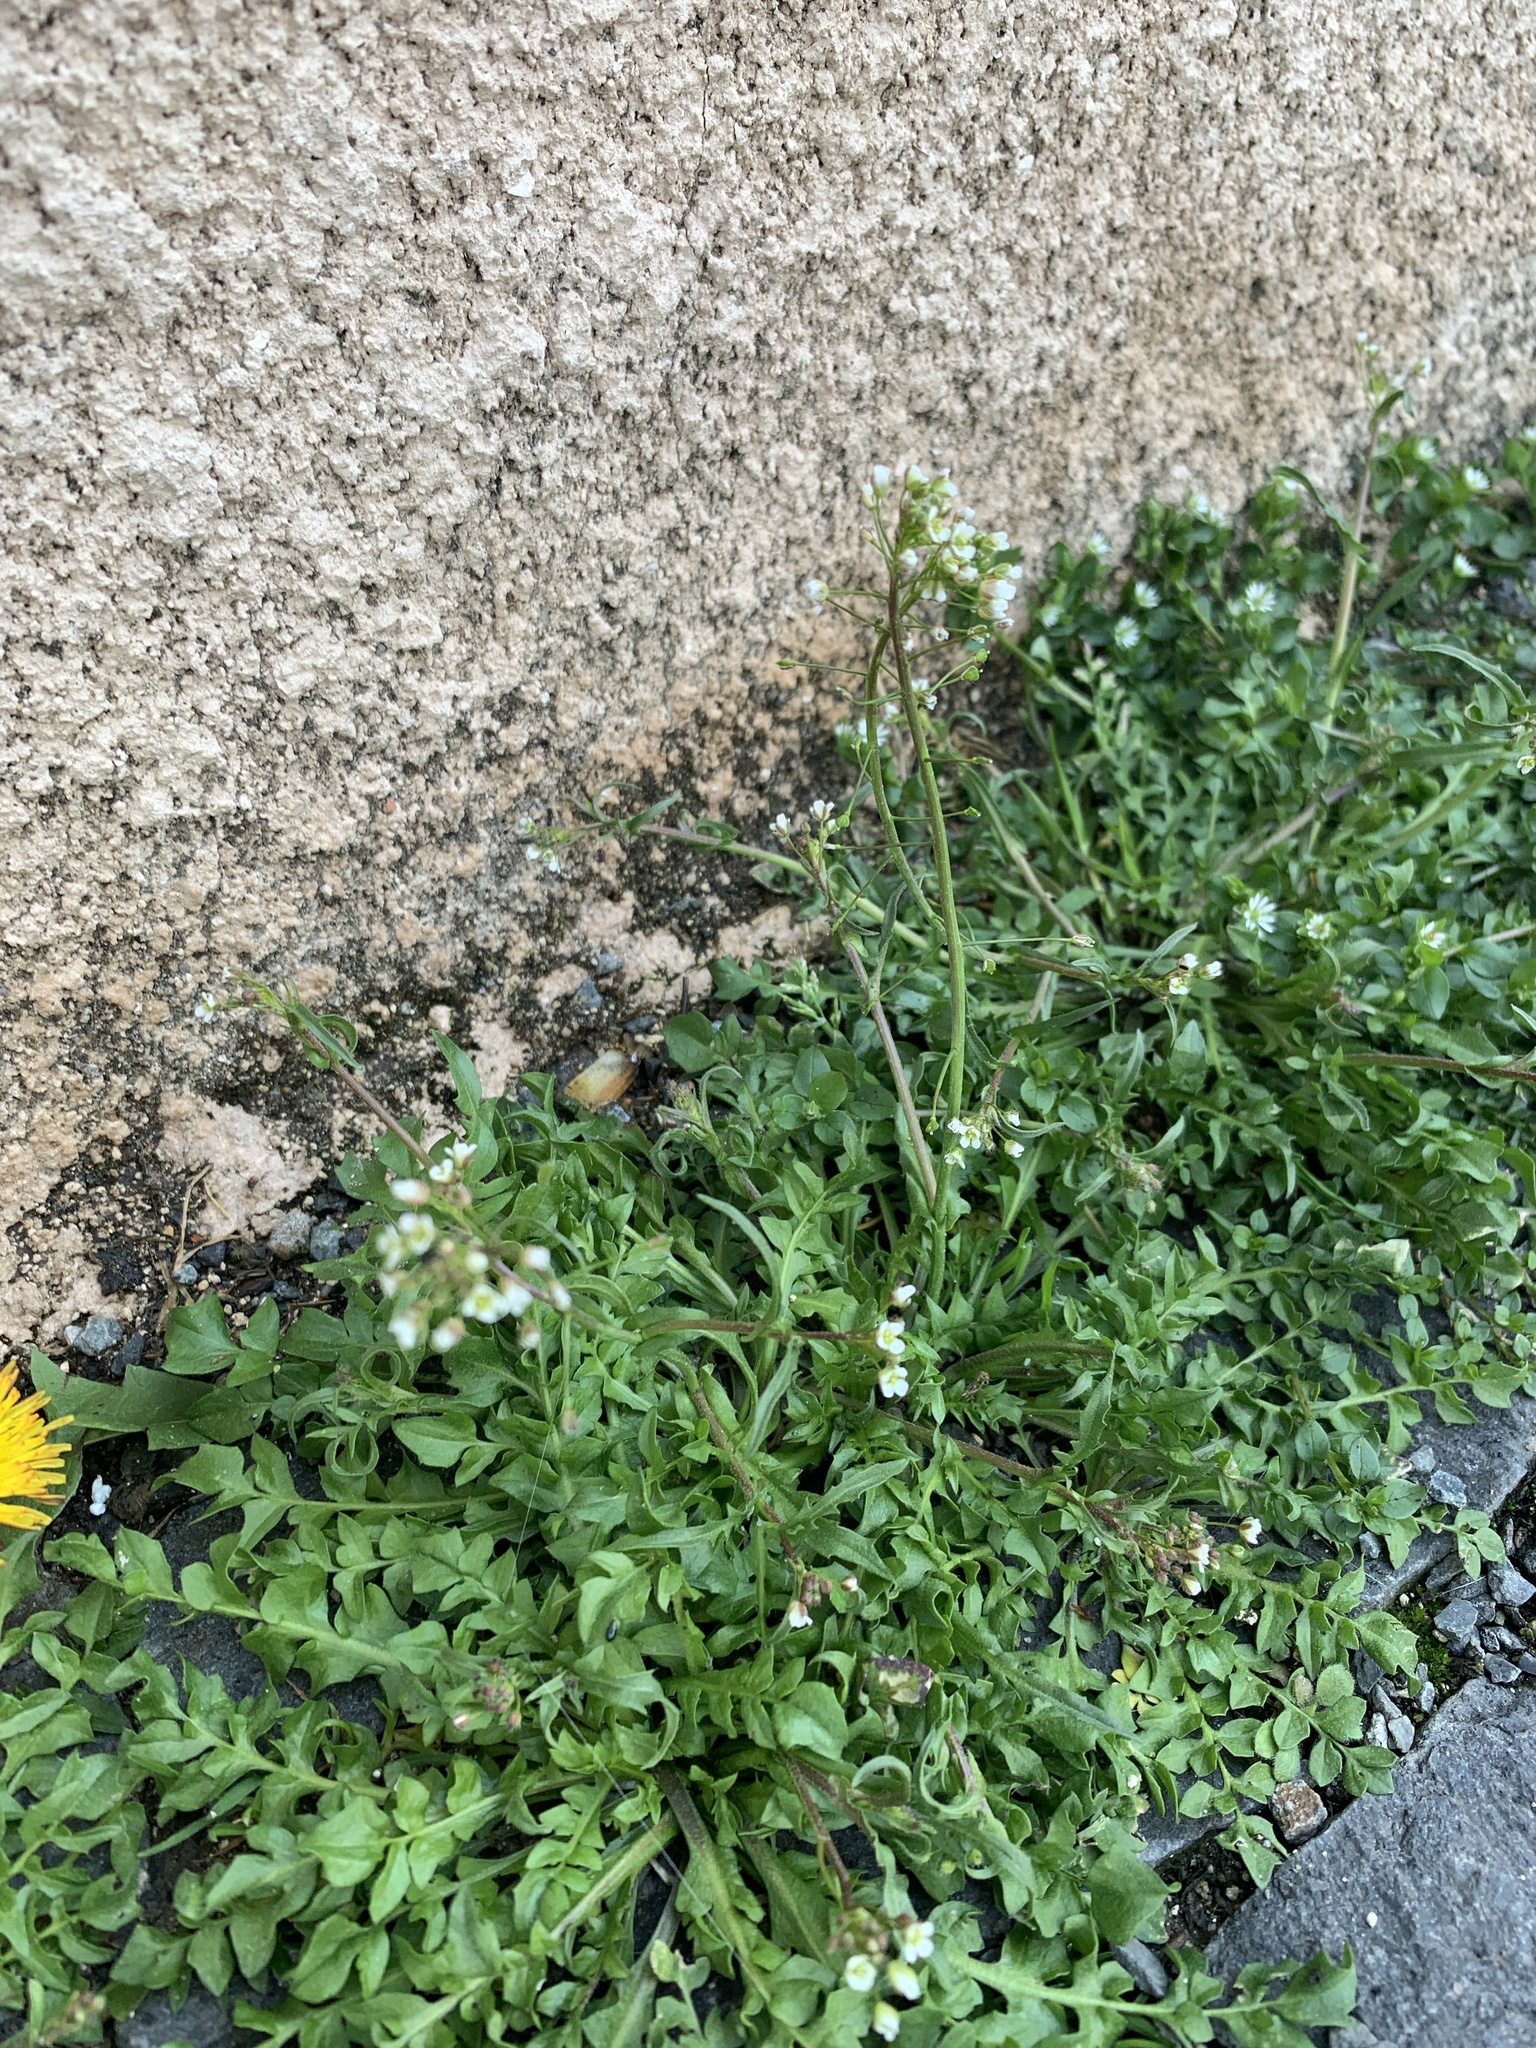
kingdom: Plantae
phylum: Tracheophyta
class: Magnoliopsida
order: Brassicales
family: Brassicaceae
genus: Capsella
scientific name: Capsella bursa-pastoris
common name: Shepherd's purse
